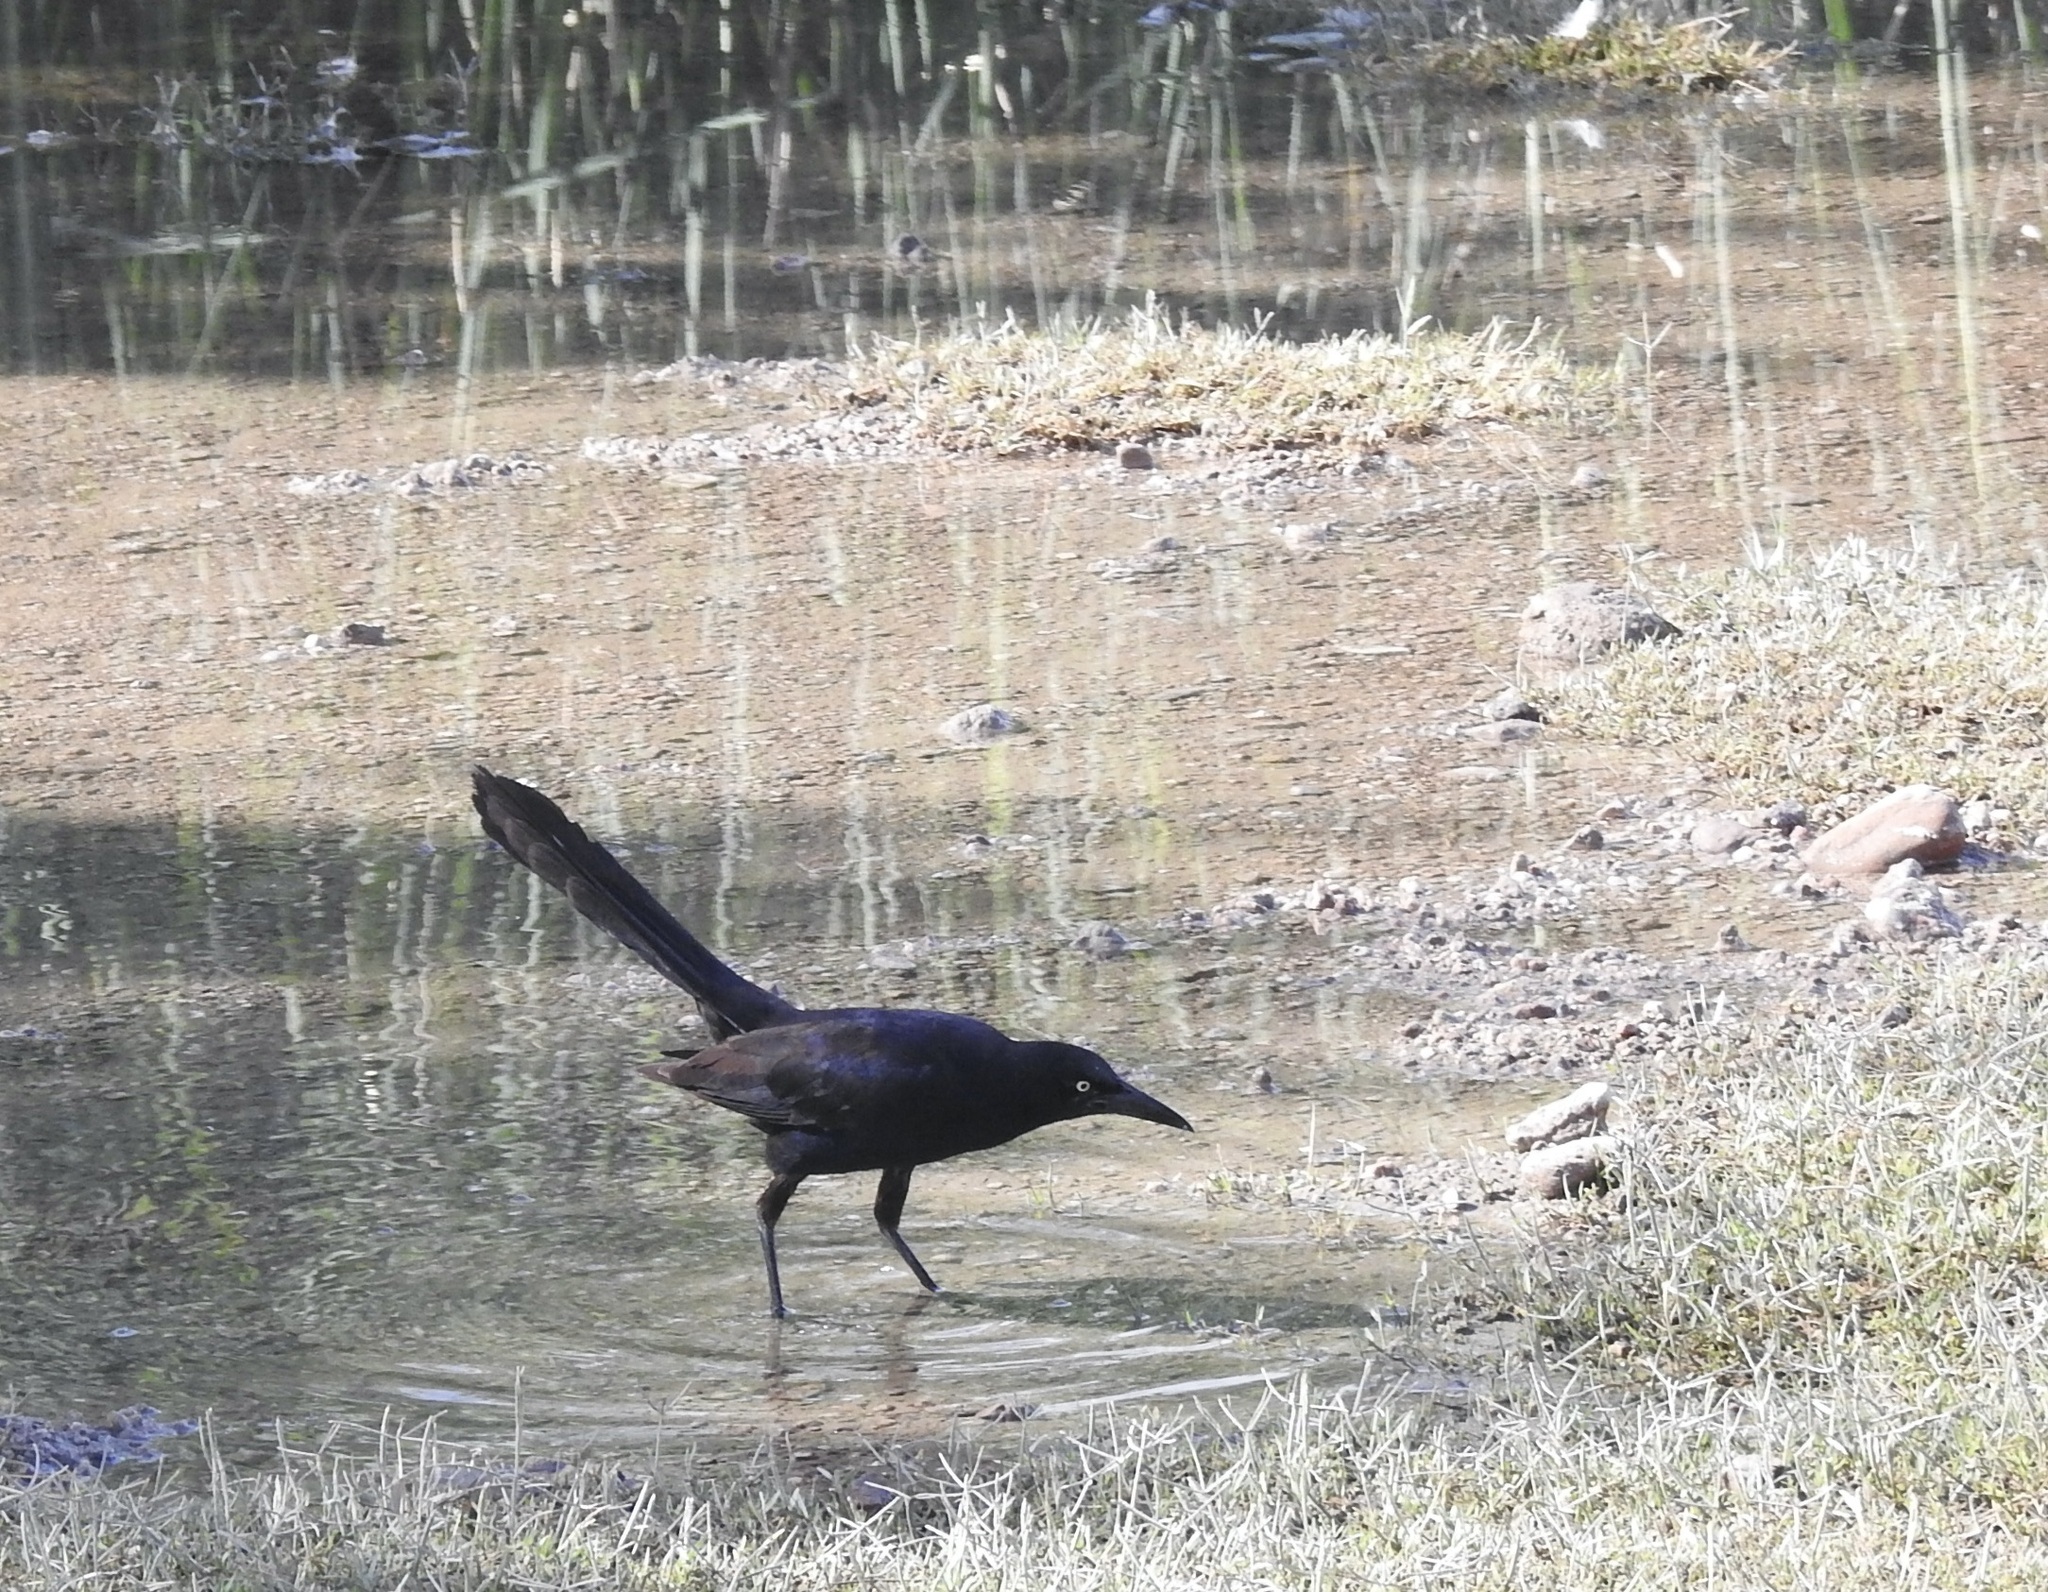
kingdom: Animalia
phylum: Chordata
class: Aves
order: Passeriformes
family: Icteridae
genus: Quiscalus
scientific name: Quiscalus mexicanus
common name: Great-tailed grackle
